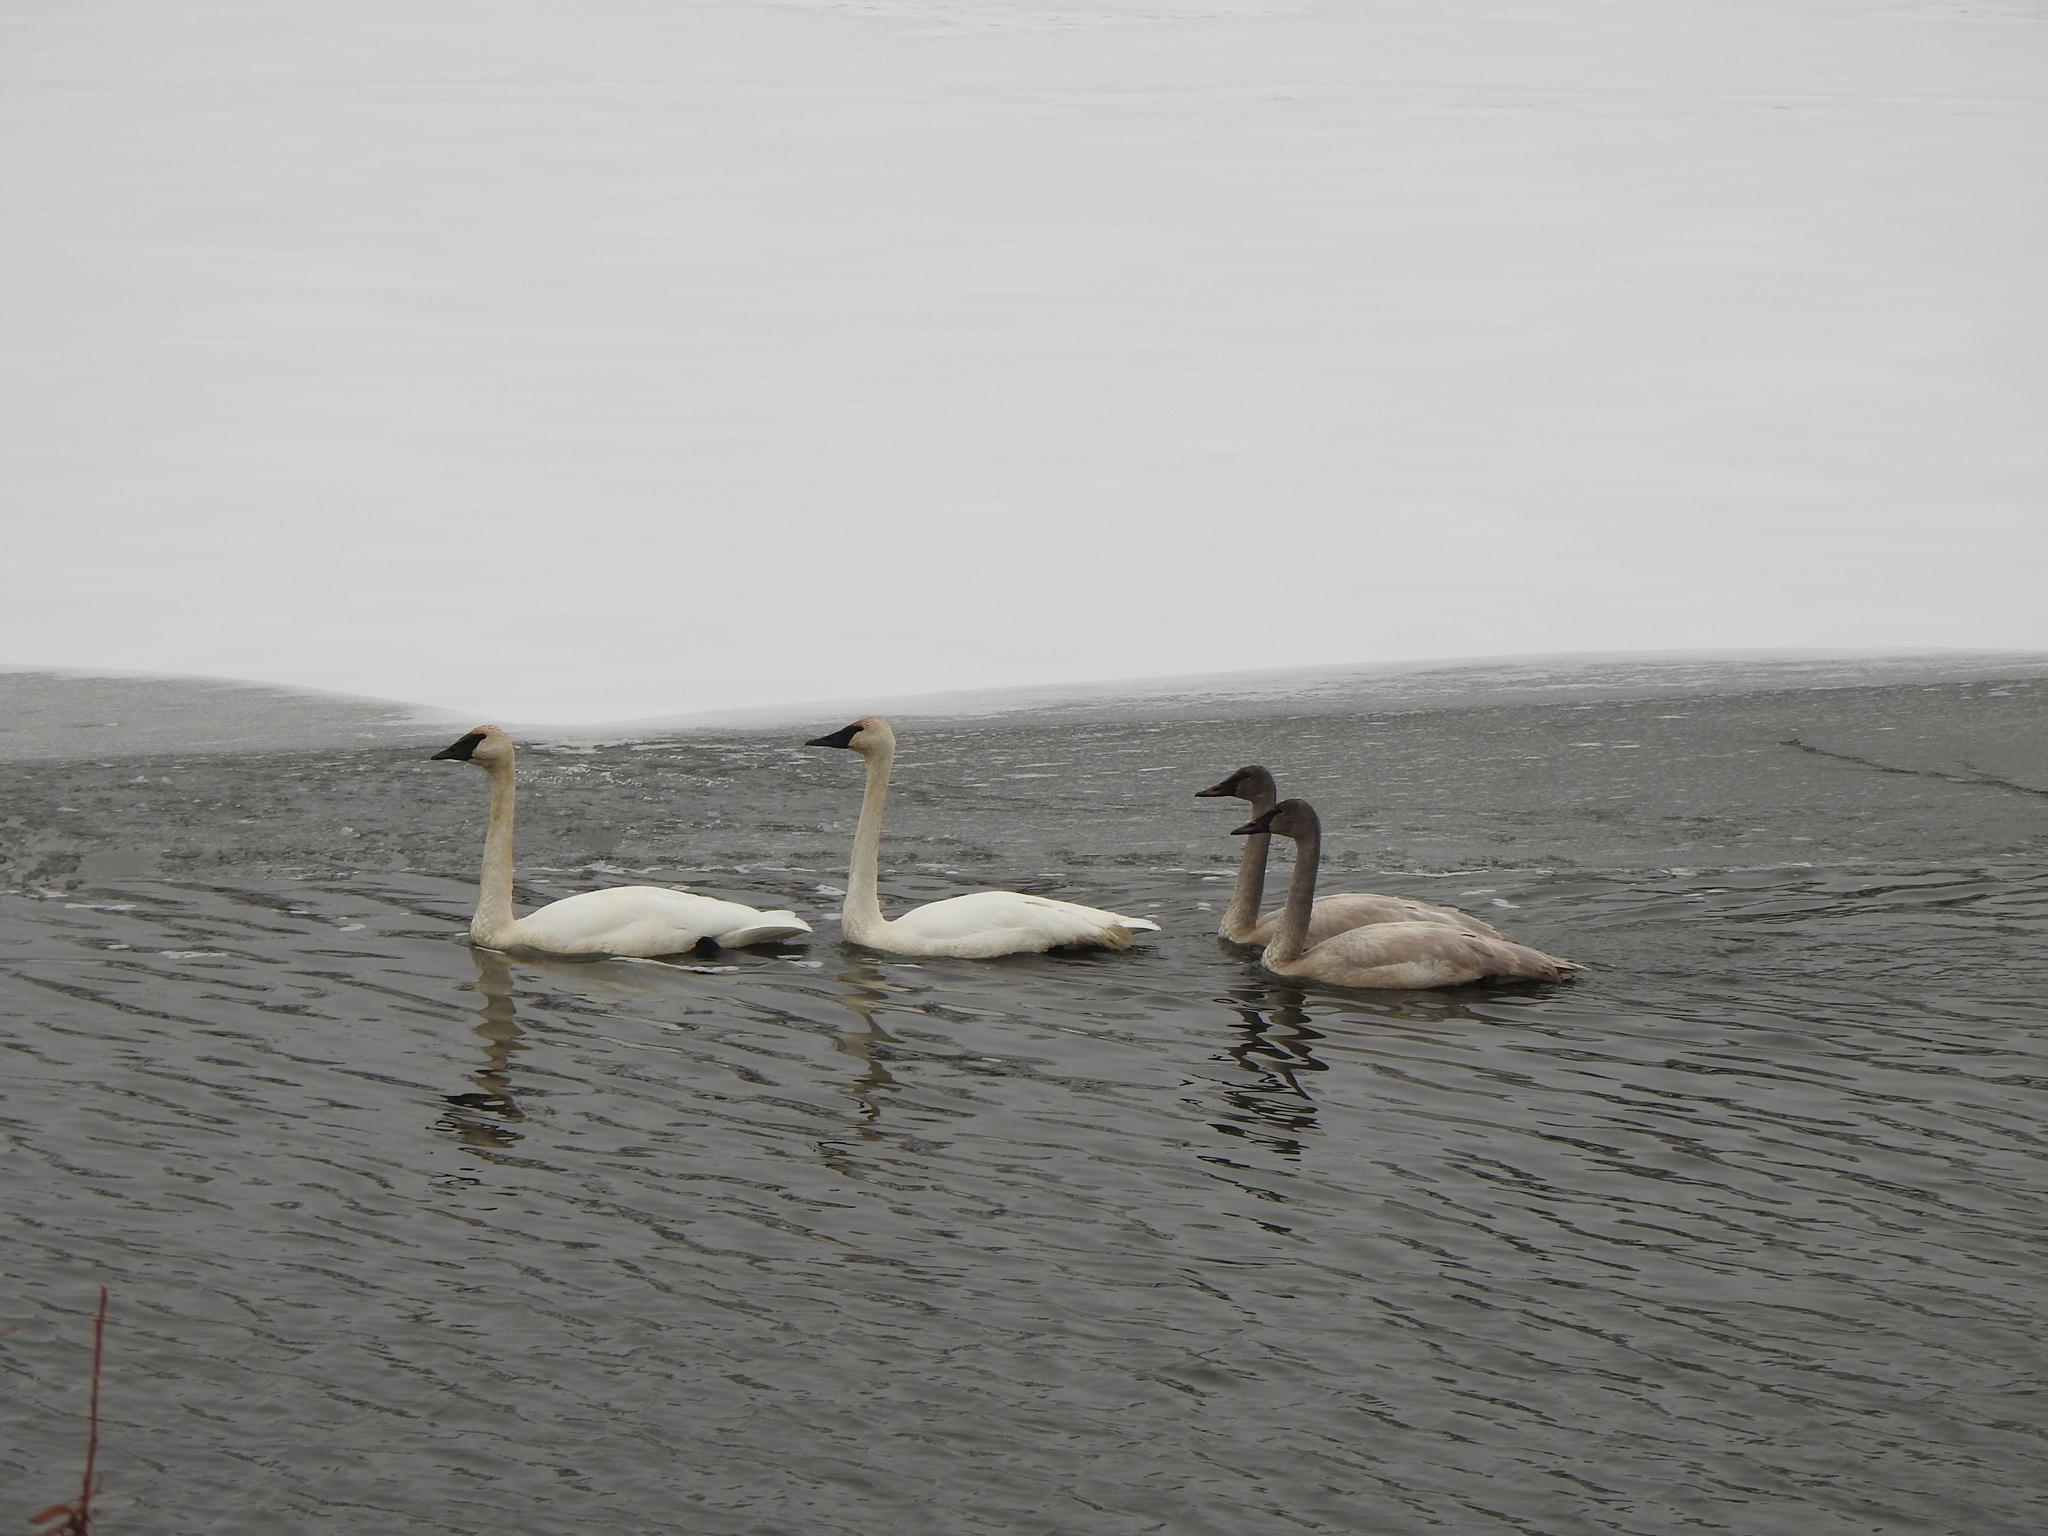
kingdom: Animalia
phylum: Chordata
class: Aves
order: Anseriformes
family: Anatidae
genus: Cygnus
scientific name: Cygnus buccinator
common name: Trumpeter swan
